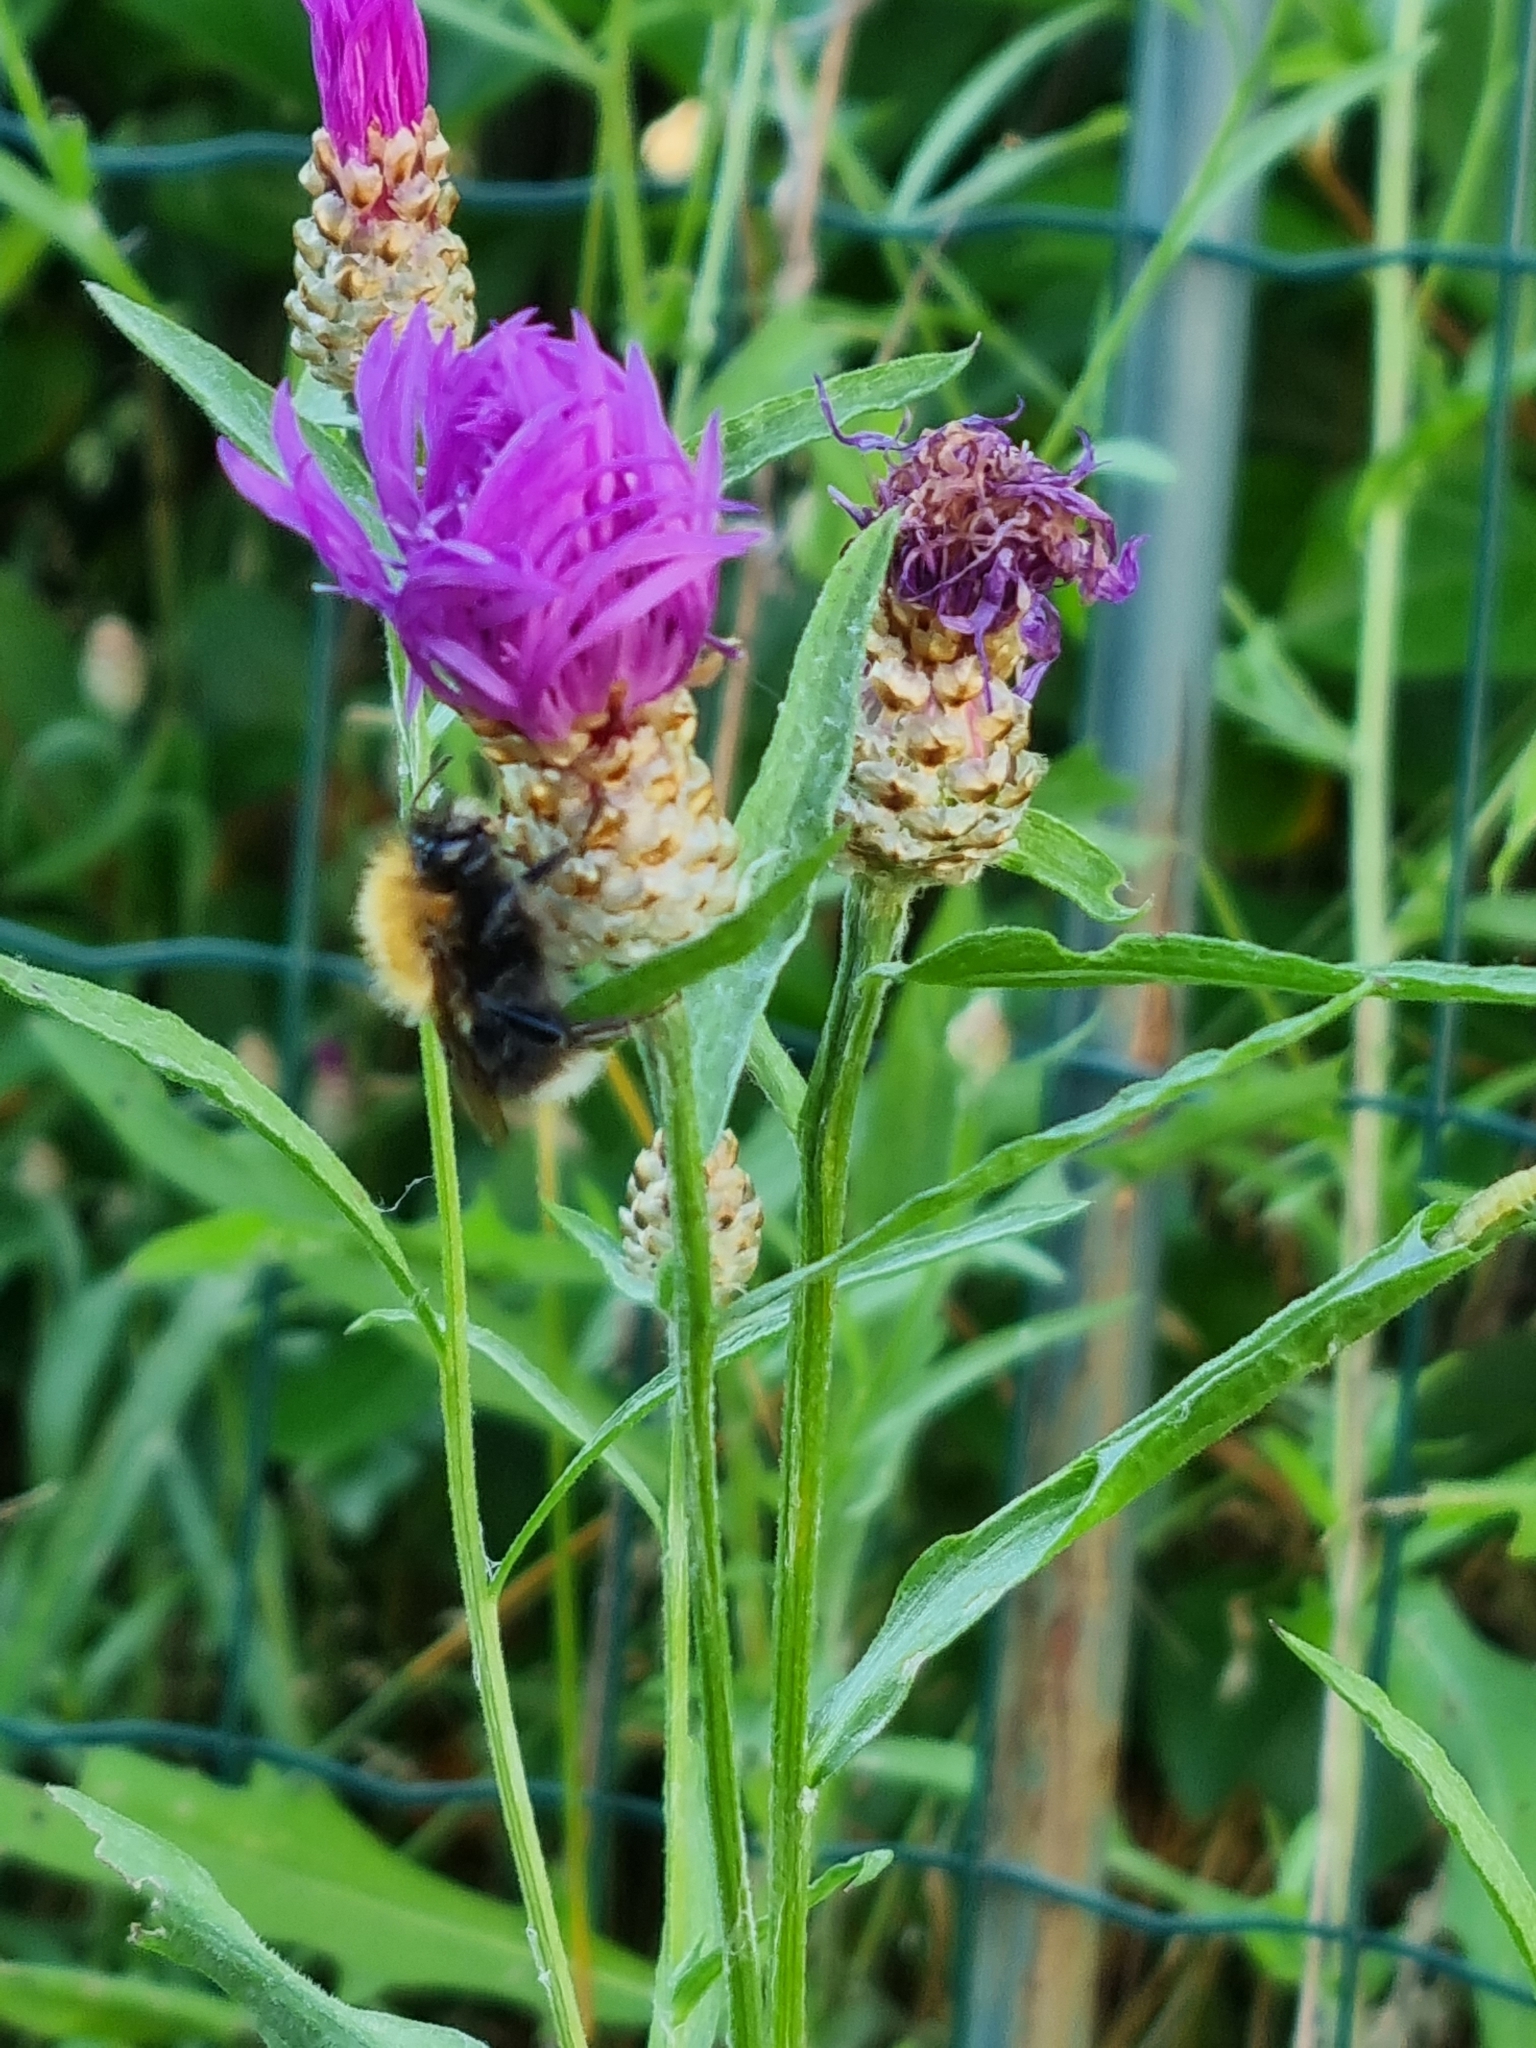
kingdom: Animalia
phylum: Arthropoda
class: Insecta
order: Hymenoptera
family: Apidae
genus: Bombus
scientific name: Bombus hypnorum
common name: New garden bumblebee
